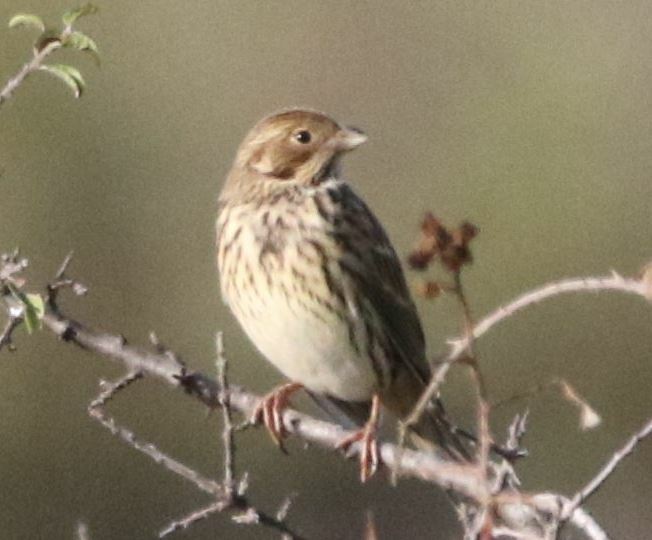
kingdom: Animalia
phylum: Chordata
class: Aves
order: Passeriformes
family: Emberizidae
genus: Emberiza
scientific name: Emberiza calandra
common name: Corn bunting
